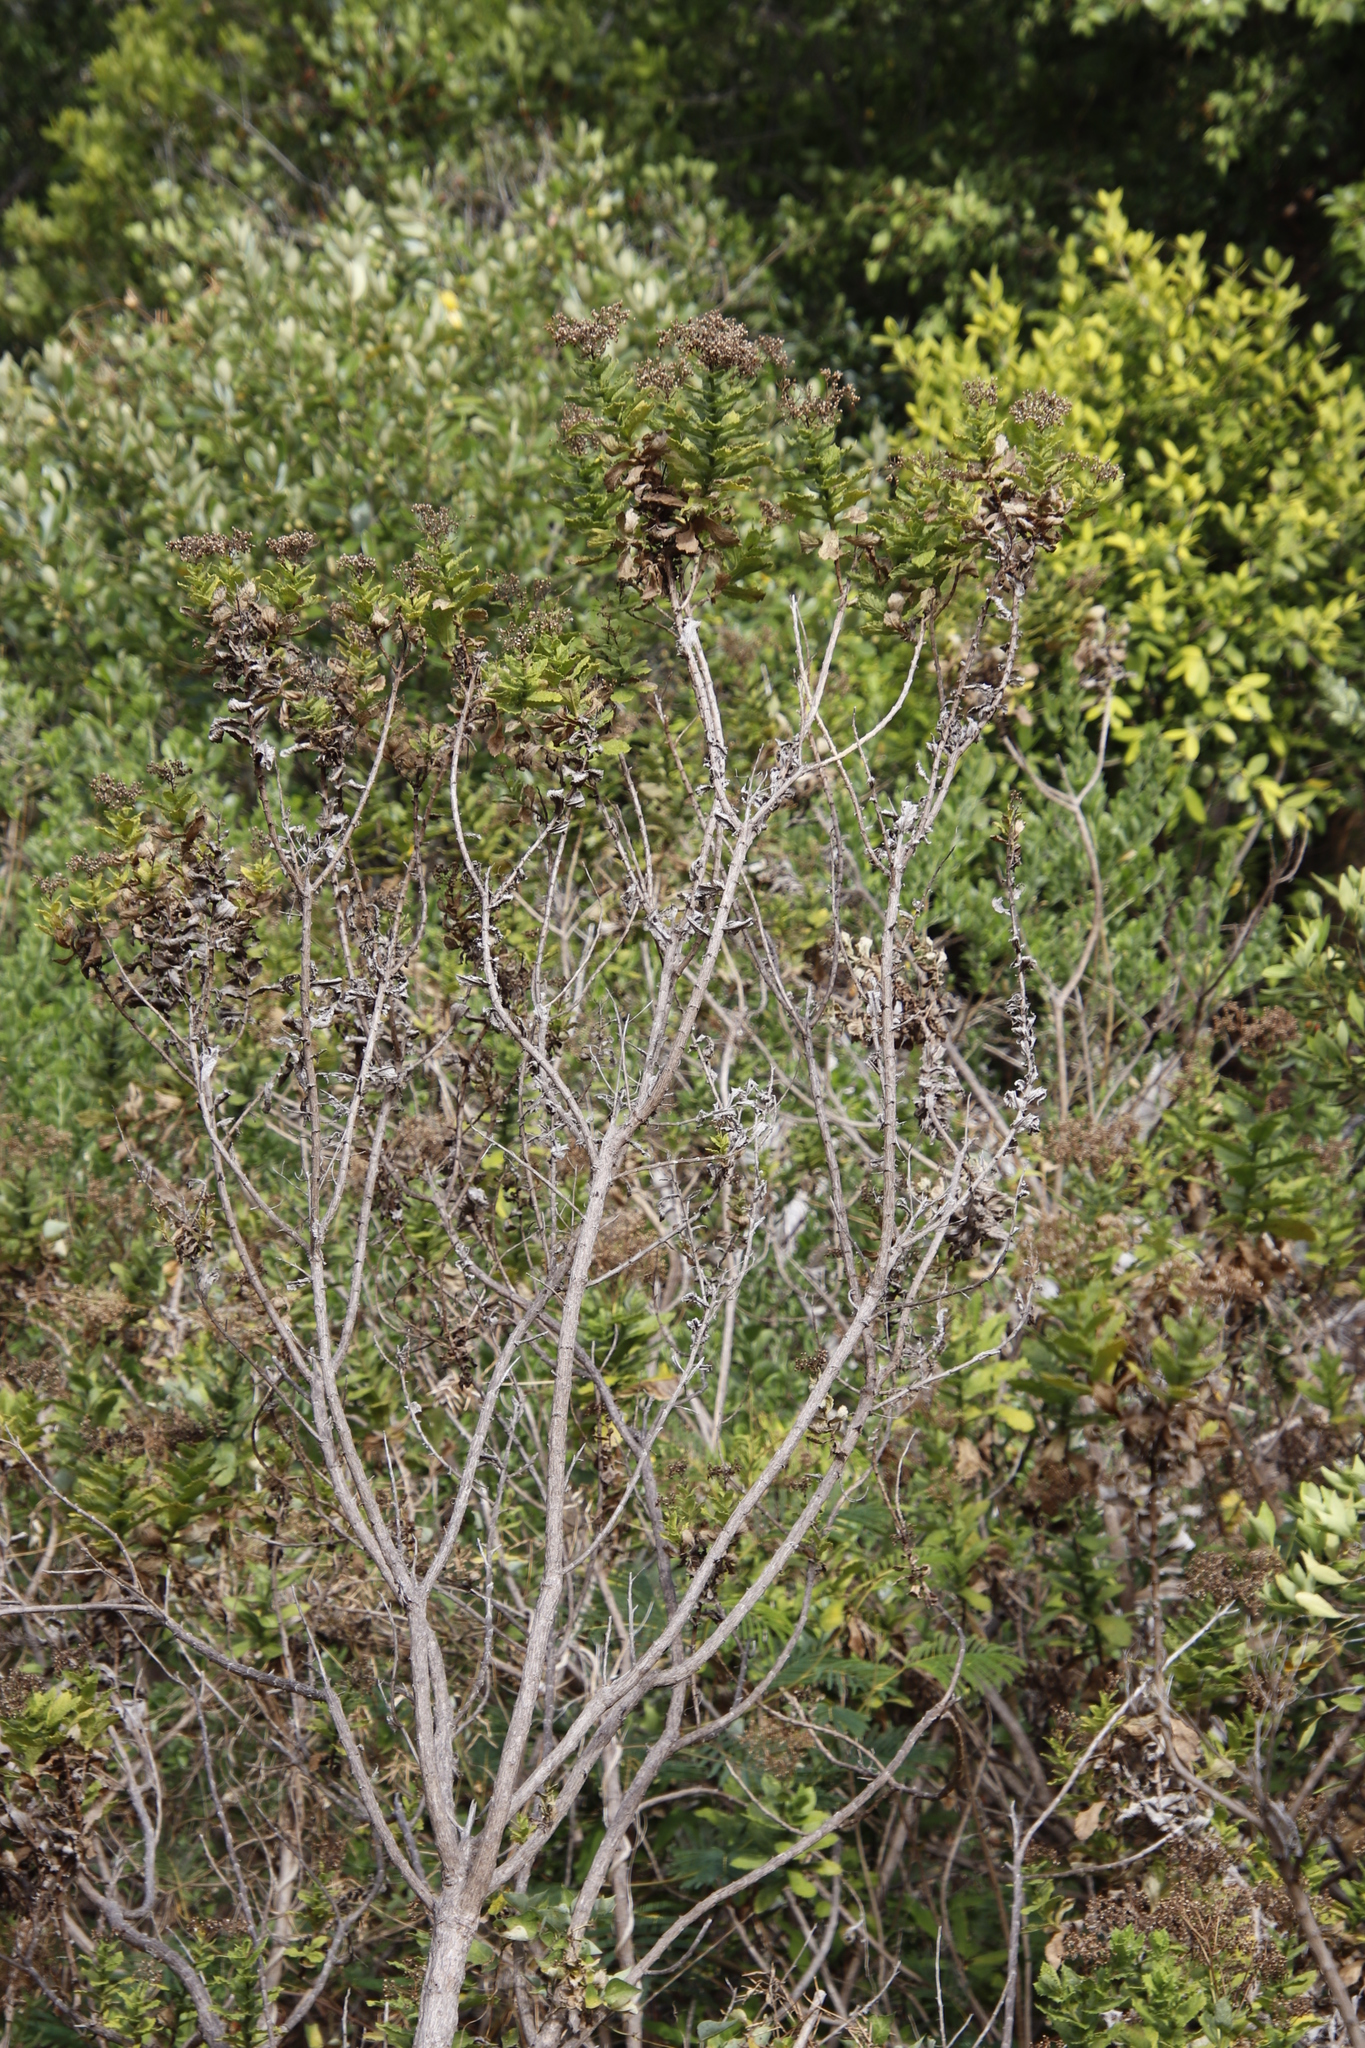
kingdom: Plantae
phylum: Tracheophyta
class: Magnoliopsida
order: Asterales
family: Asteraceae
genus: Senecio
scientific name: Senecio rigidus
